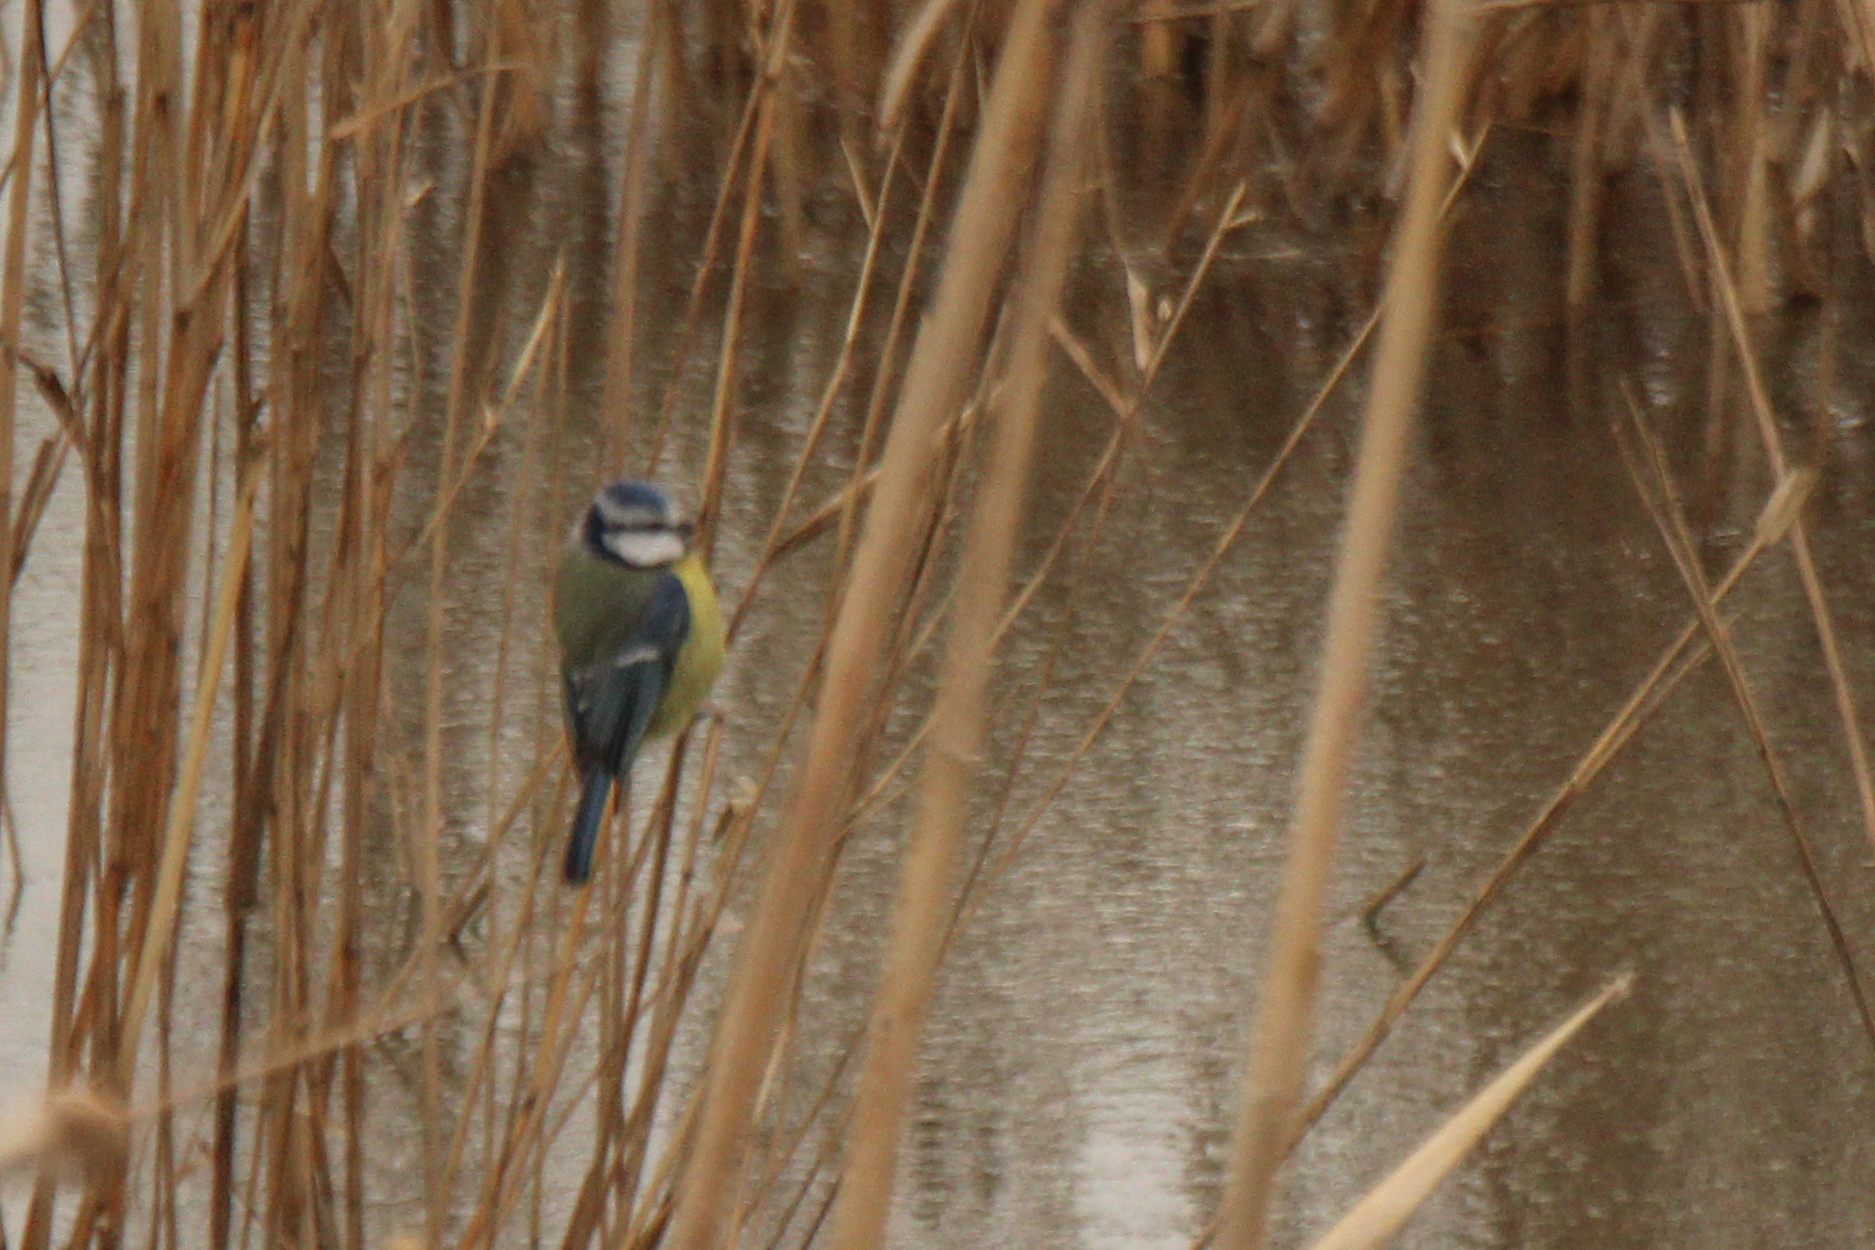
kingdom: Animalia
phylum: Chordata
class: Aves
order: Passeriformes
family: Paridae
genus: Cyanistes
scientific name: Cyanistes caeruleus
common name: Eurasian blue tit
